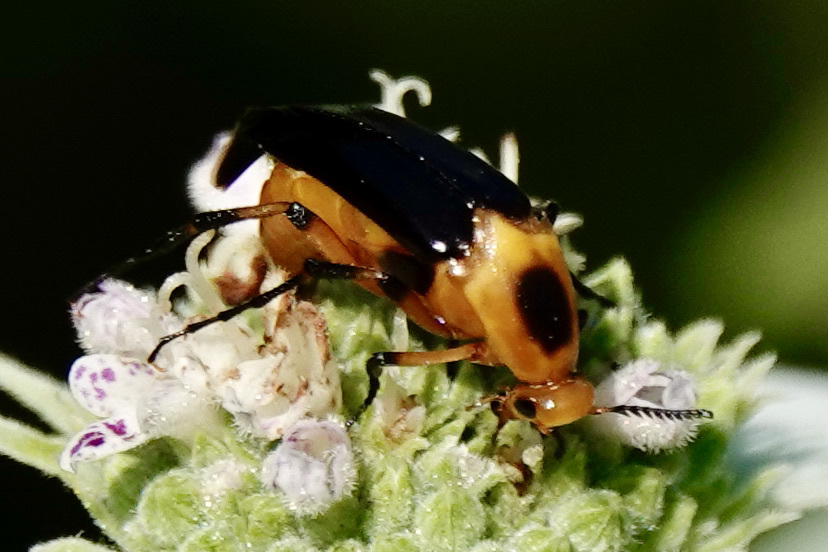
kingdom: Animalia
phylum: Arthropoda
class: Insecta
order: Coleoptera
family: Ripiphoridae
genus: Macrosiagon
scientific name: Macrosiagon limbatum
